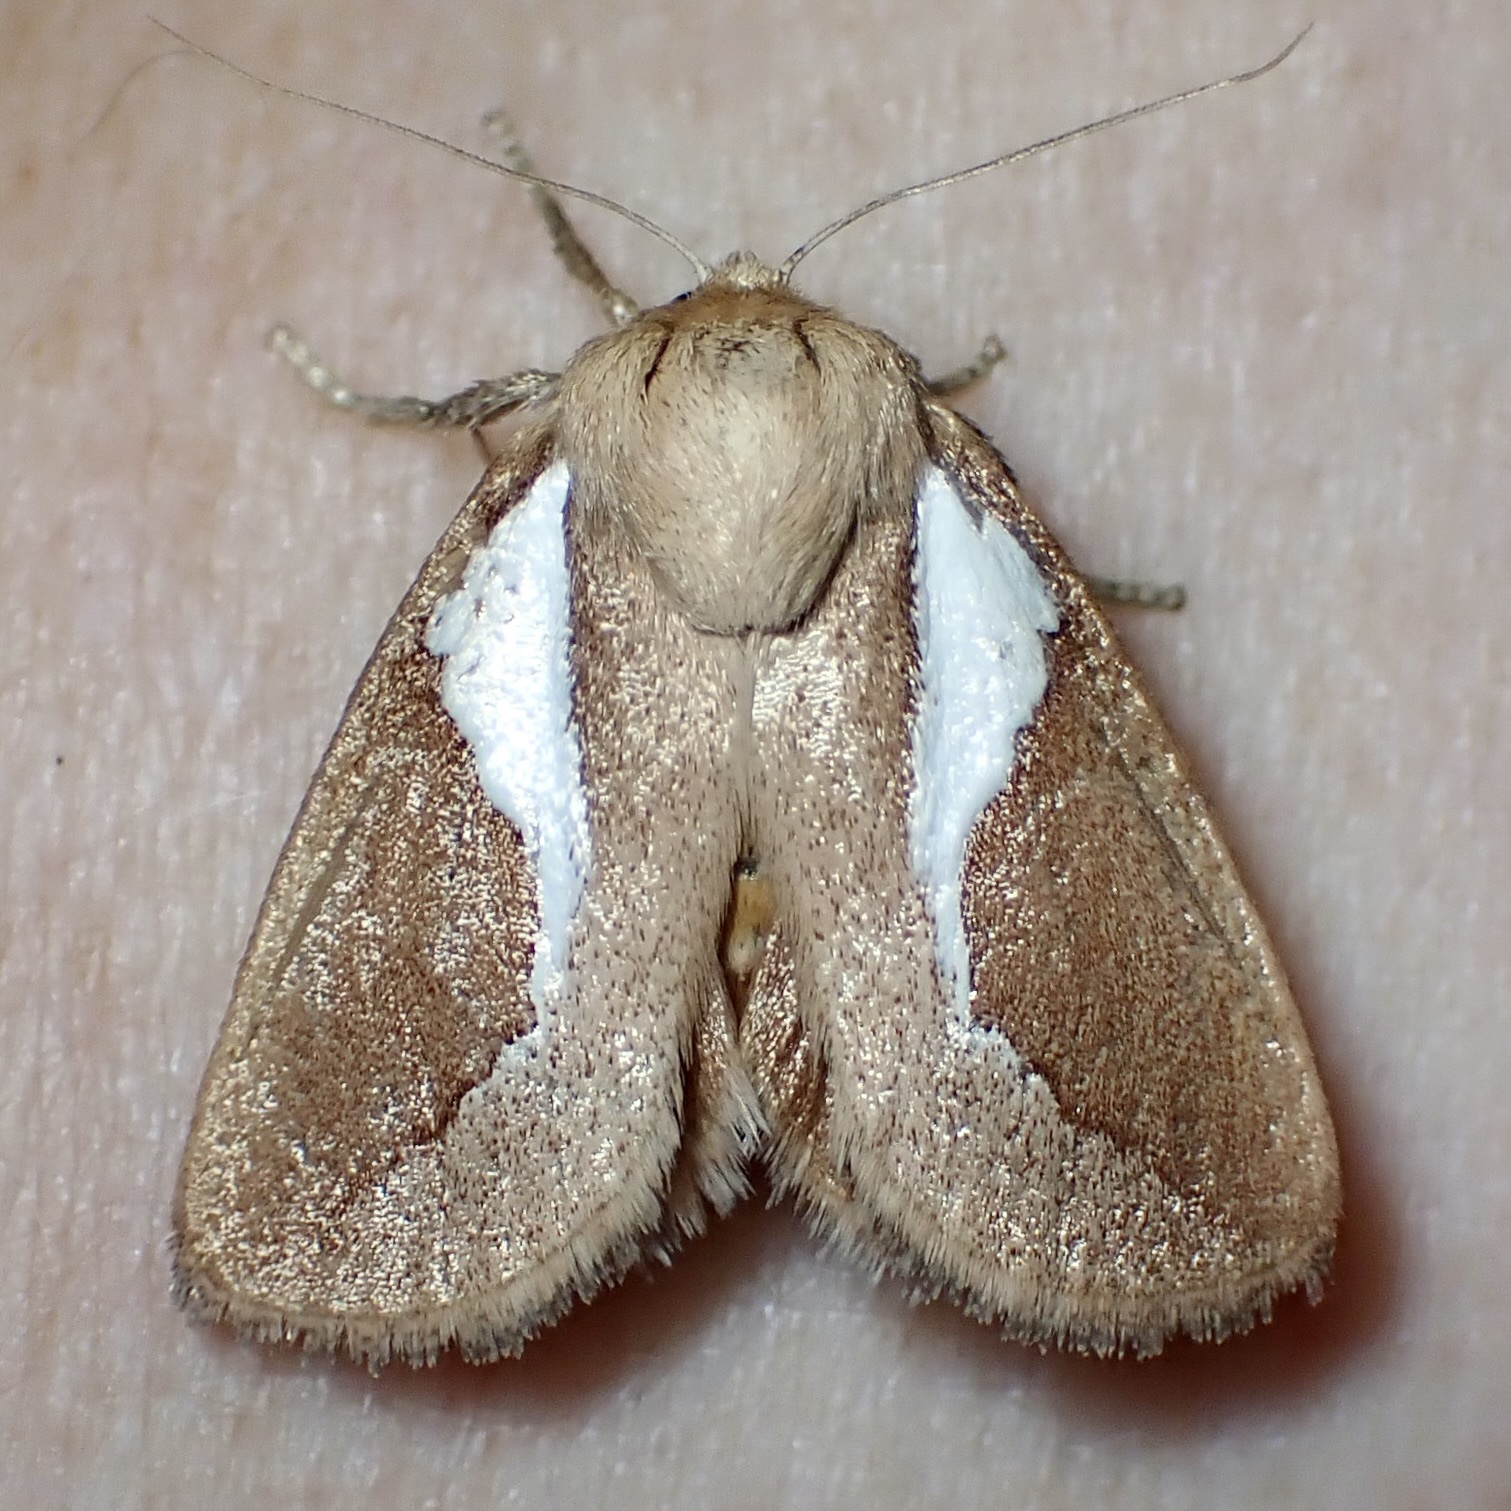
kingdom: Animalia
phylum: Arthropoda
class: Insecta
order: Lepidoptera
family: Limacodidae
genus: Prolimacodes
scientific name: Prolimacodes trigona
